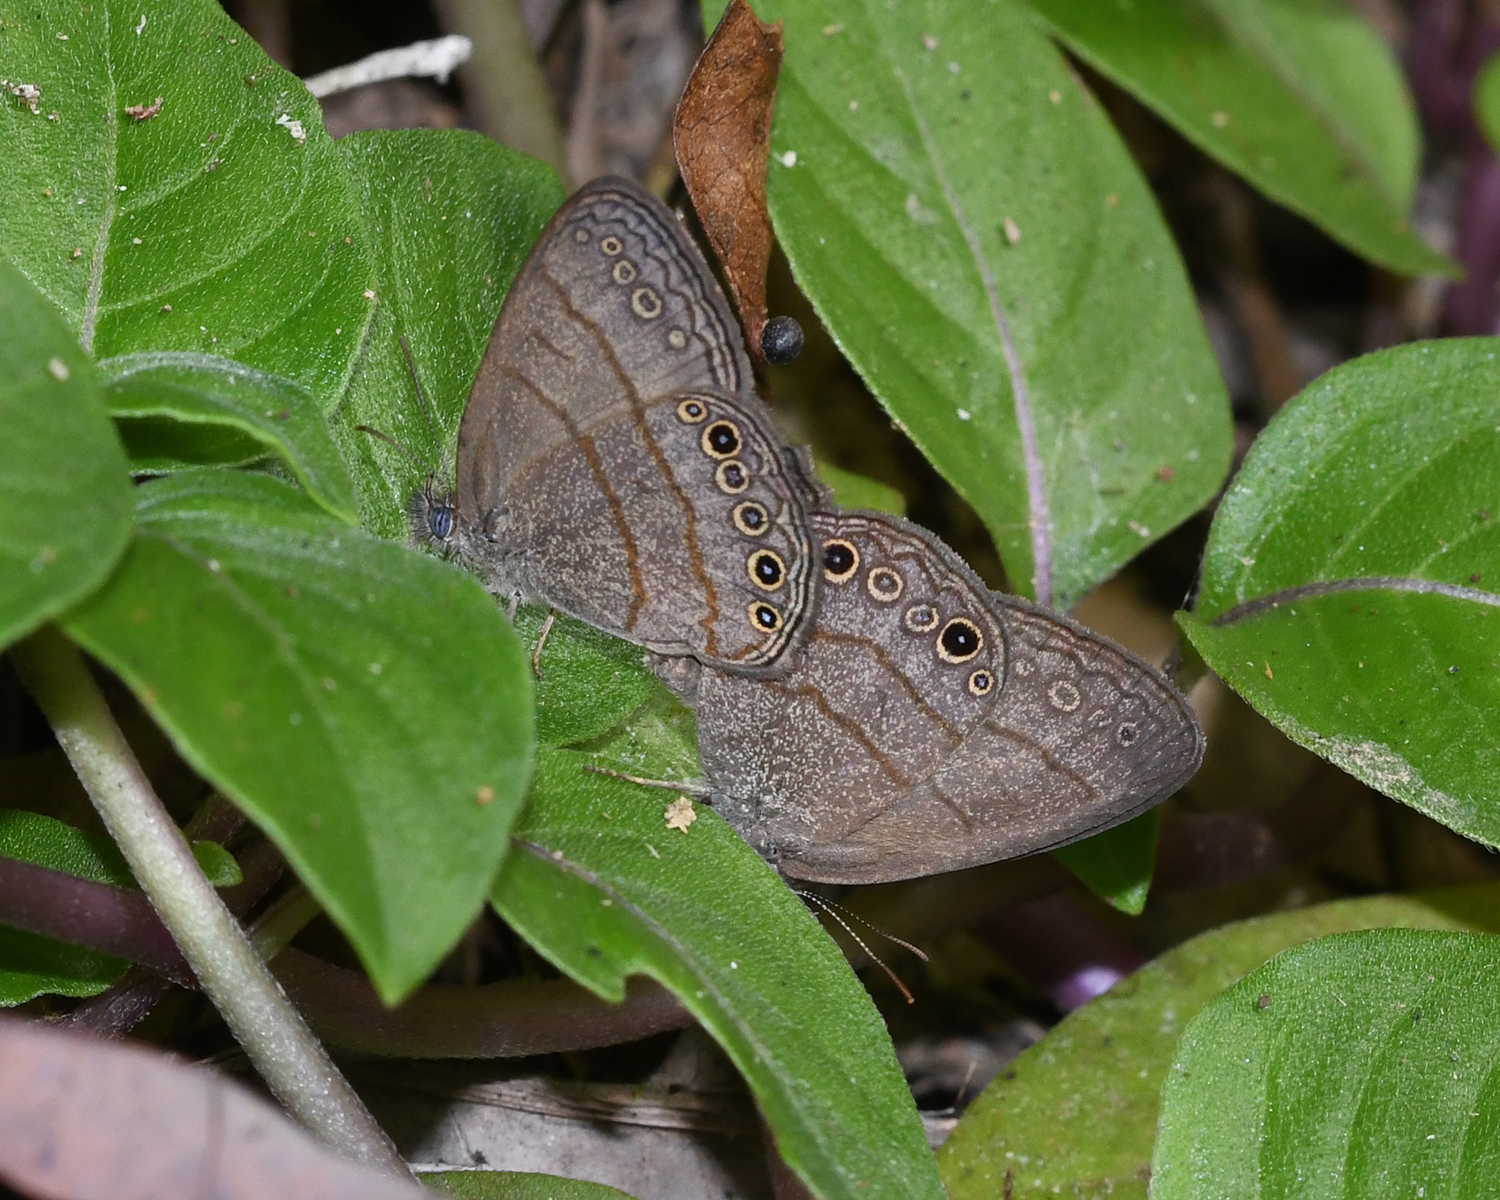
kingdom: Animalia
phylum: Arthropoda
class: Insecta
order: Lepidoptera
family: Nymphalidae
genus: Hermeuptychia
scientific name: Hermeuptychia canthe
